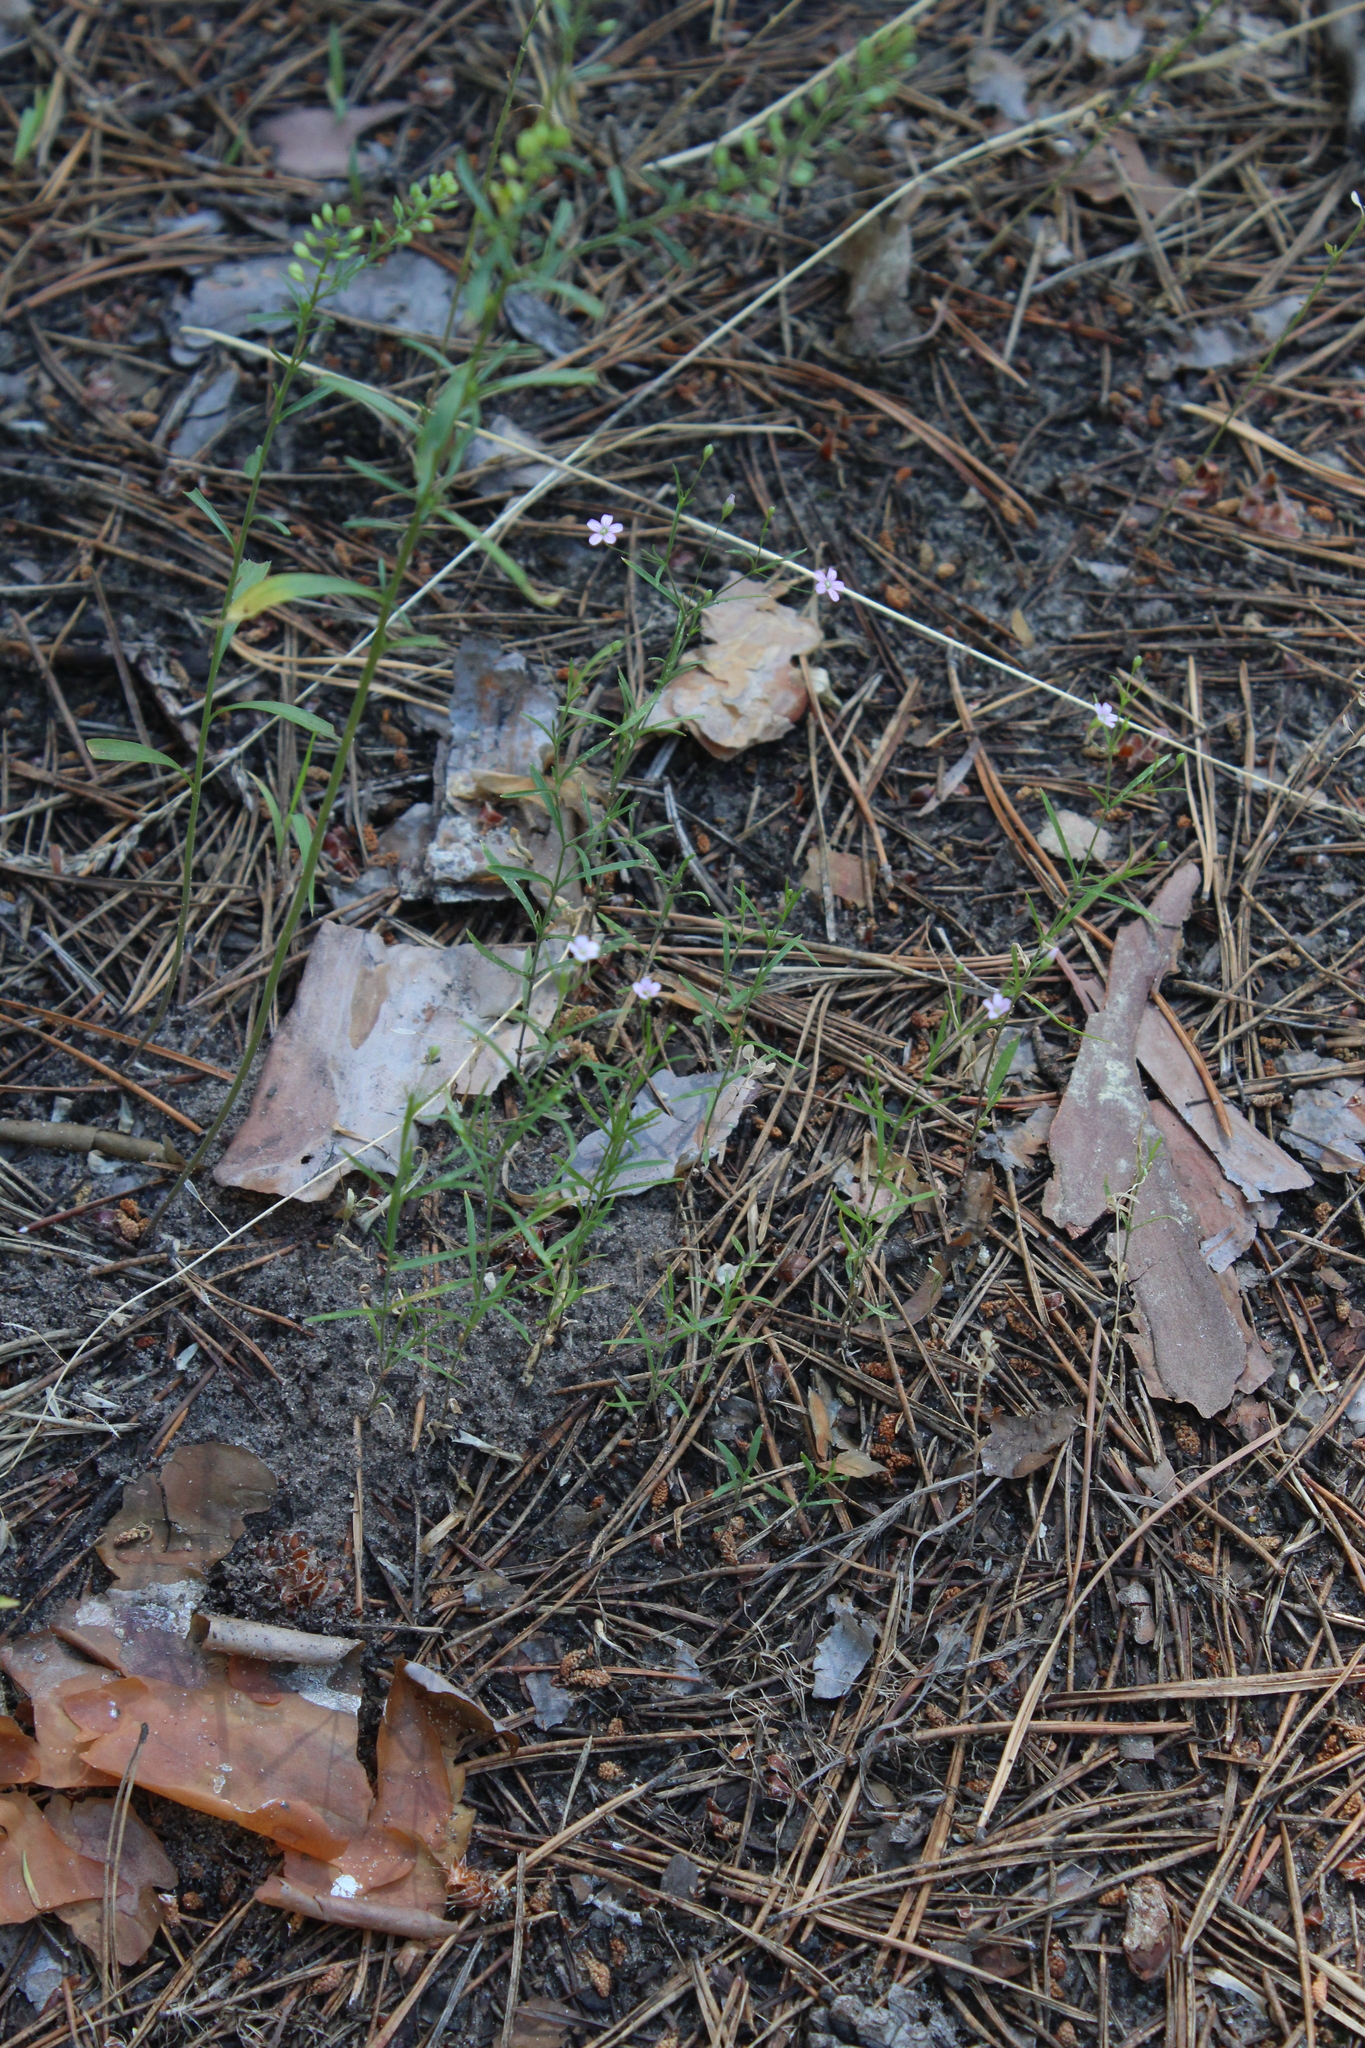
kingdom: Plantae
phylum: Tracheophyta
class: Magnoliopsida
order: Caryophyllales
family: Caryophyllaceae
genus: Psammophiliella
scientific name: Psammophiliella muralis
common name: Cushion baby's-breath
